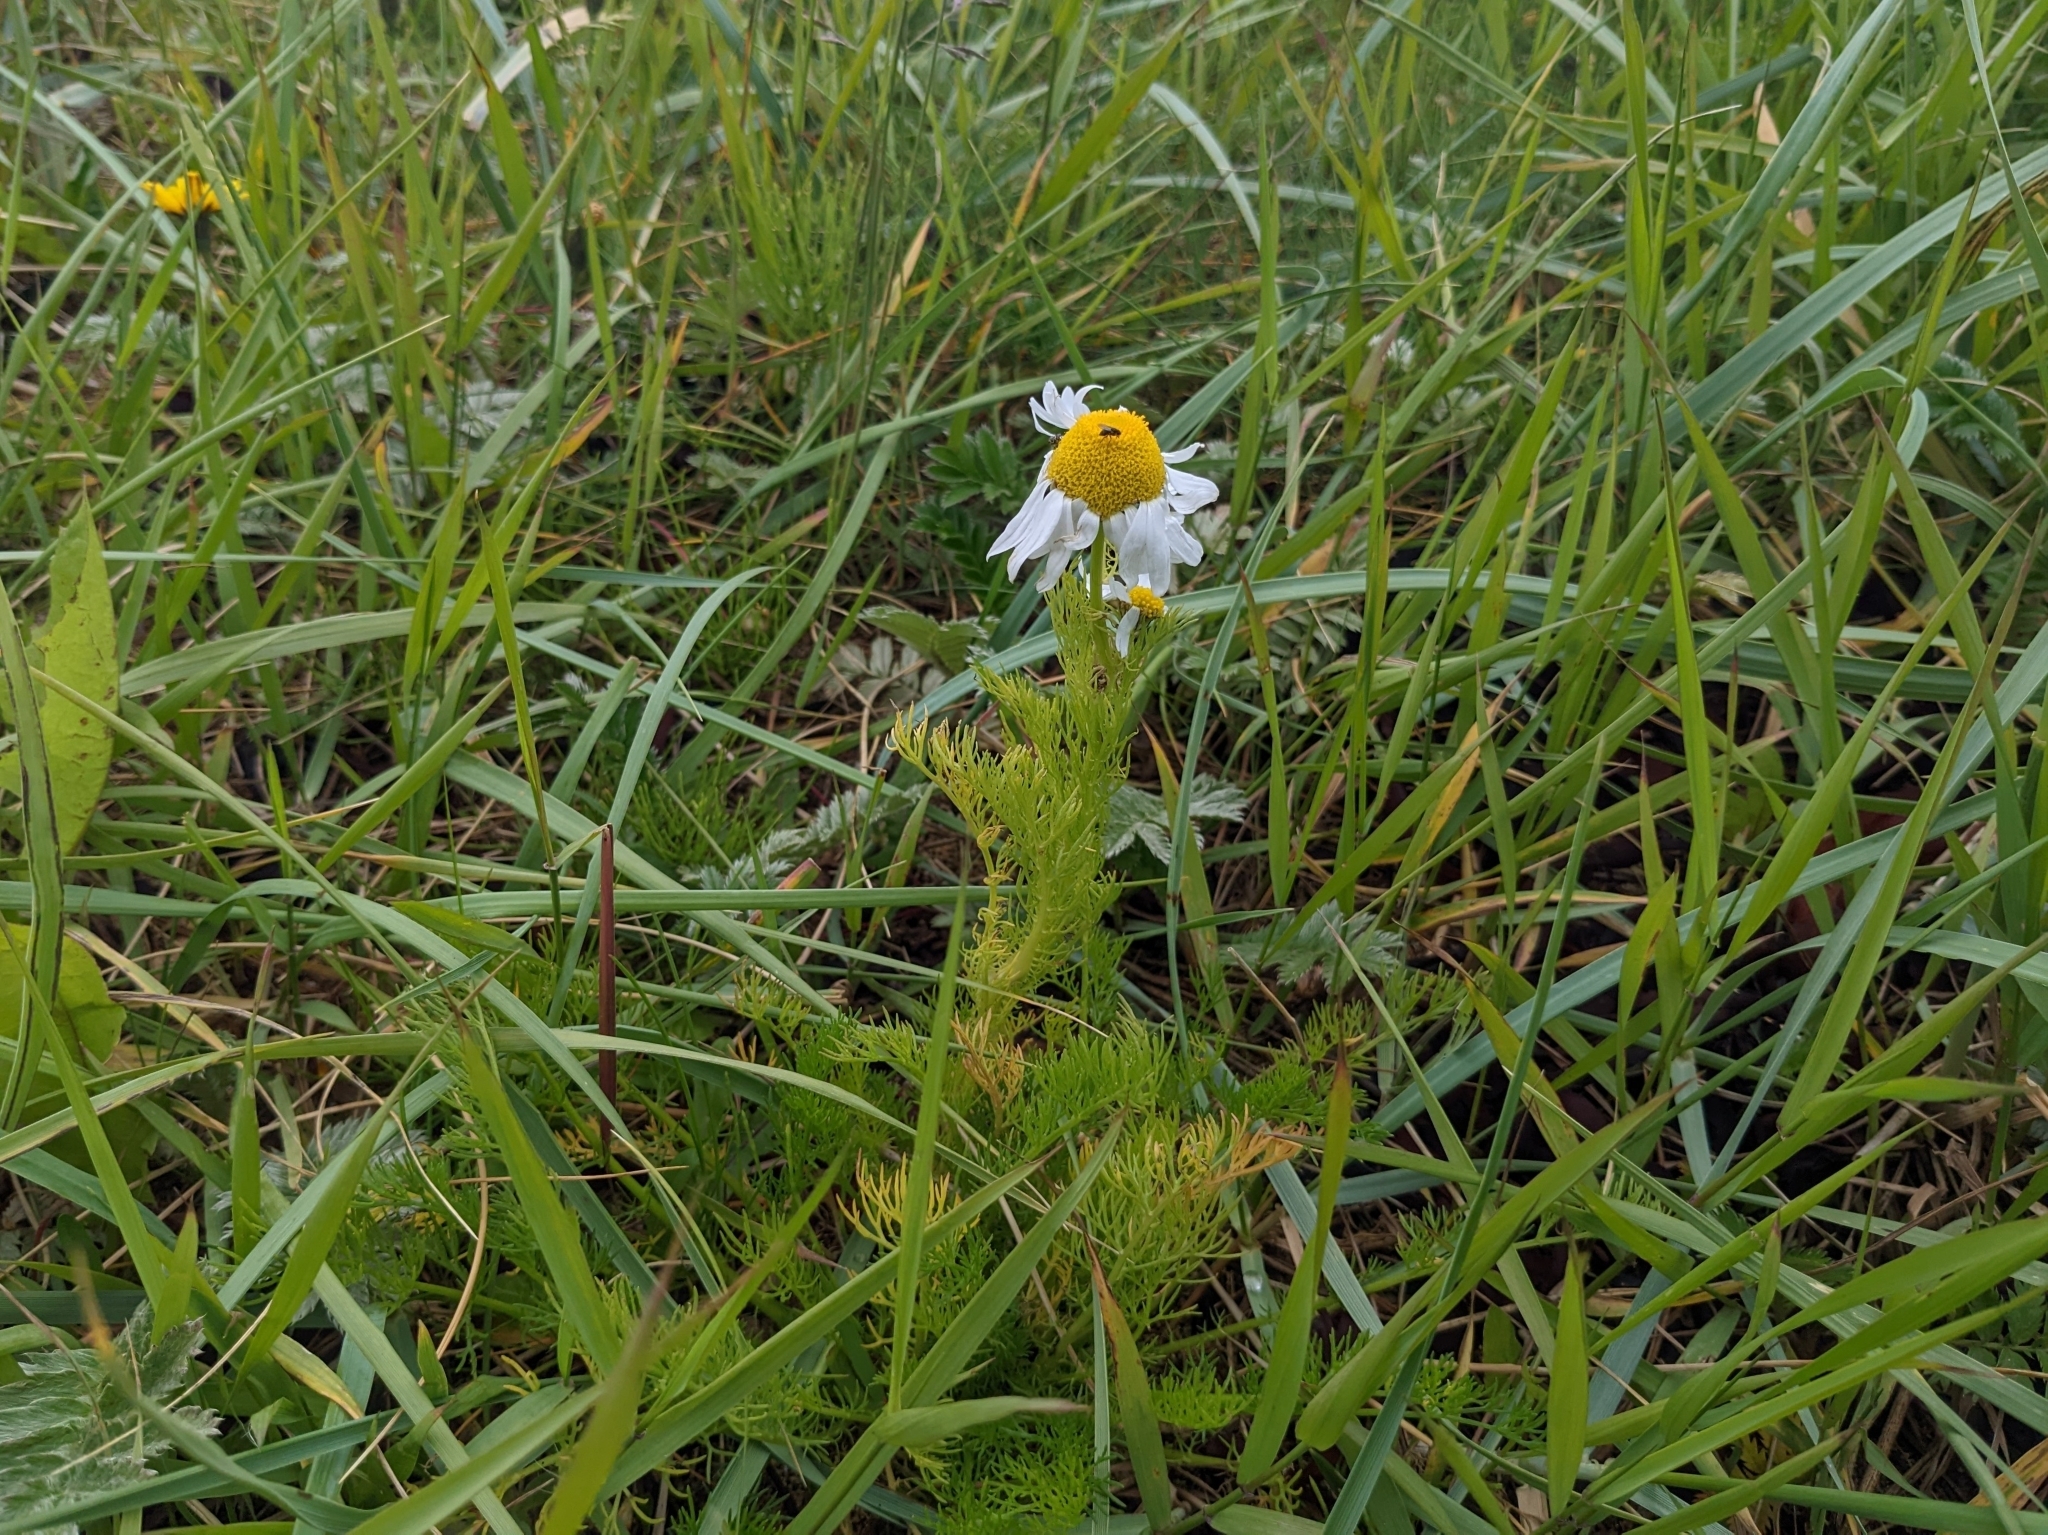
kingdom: Plantae
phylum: Tracheophyta
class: Magnoliopsida
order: Asterales
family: Asteraceae
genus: Tripleurospermum
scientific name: Tripleurospermum maritimum
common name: Sea mayweed
